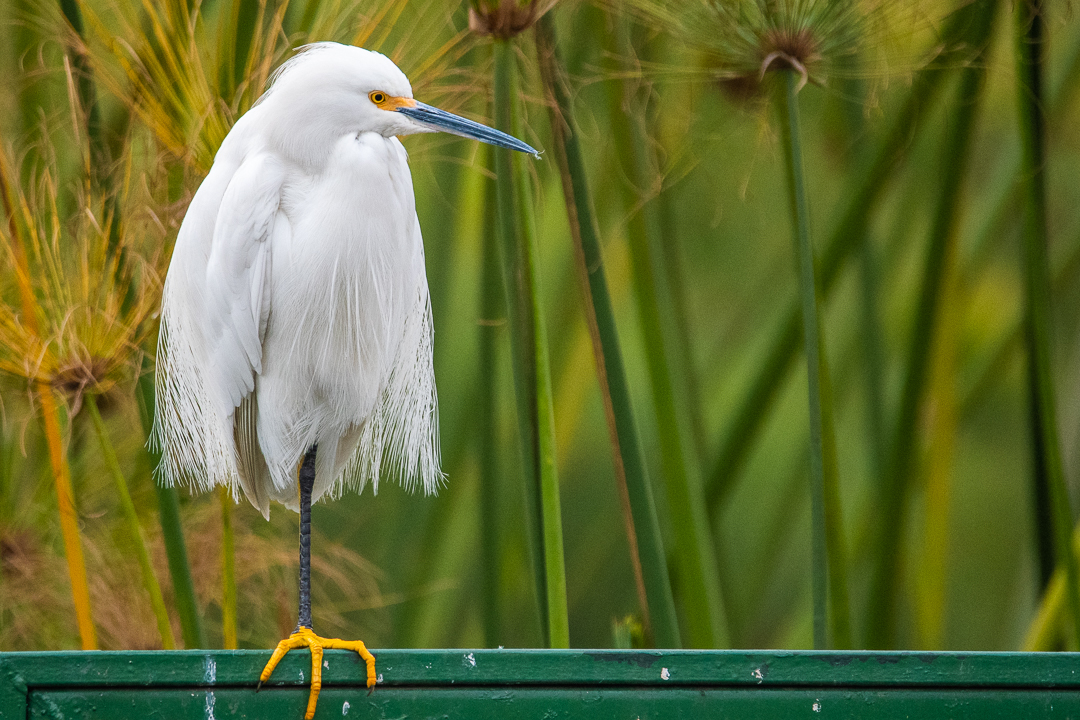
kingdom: Animalia
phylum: Chordata
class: Aves
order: Pelecaniformes
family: Ardeidae
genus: Egretta
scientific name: Egretta thula
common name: Snowy egret
